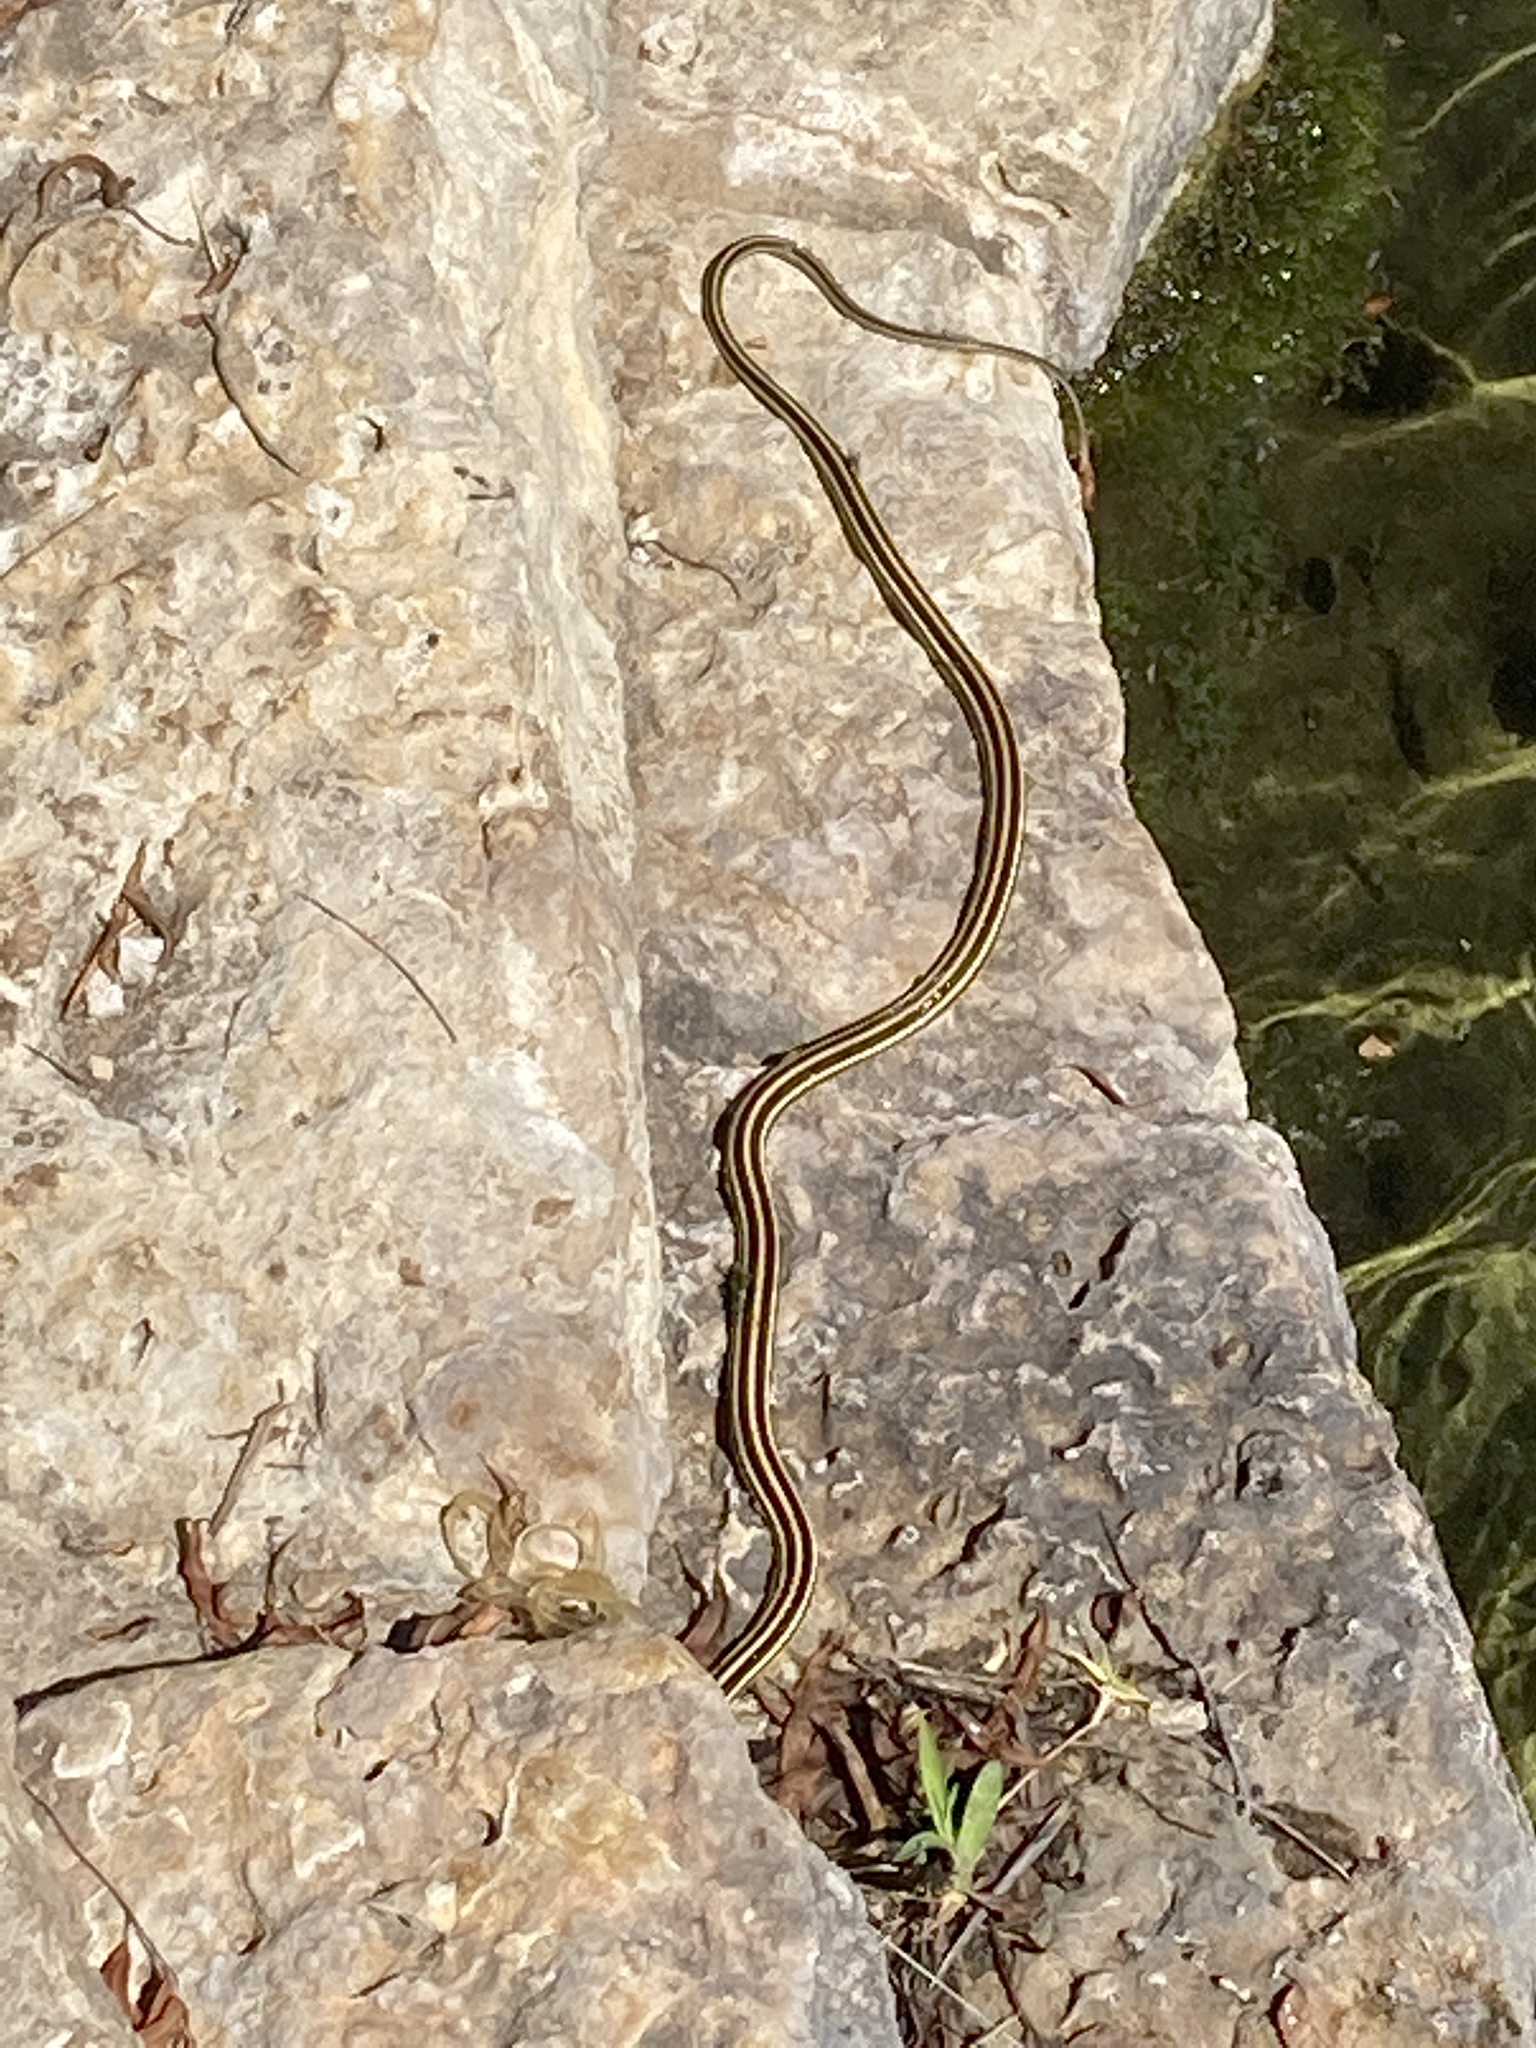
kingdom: Animalia
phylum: Chordata
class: Squamata
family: Colubridae
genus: Thamnophis
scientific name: Thamnophis proximus
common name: Western ribbon snake
